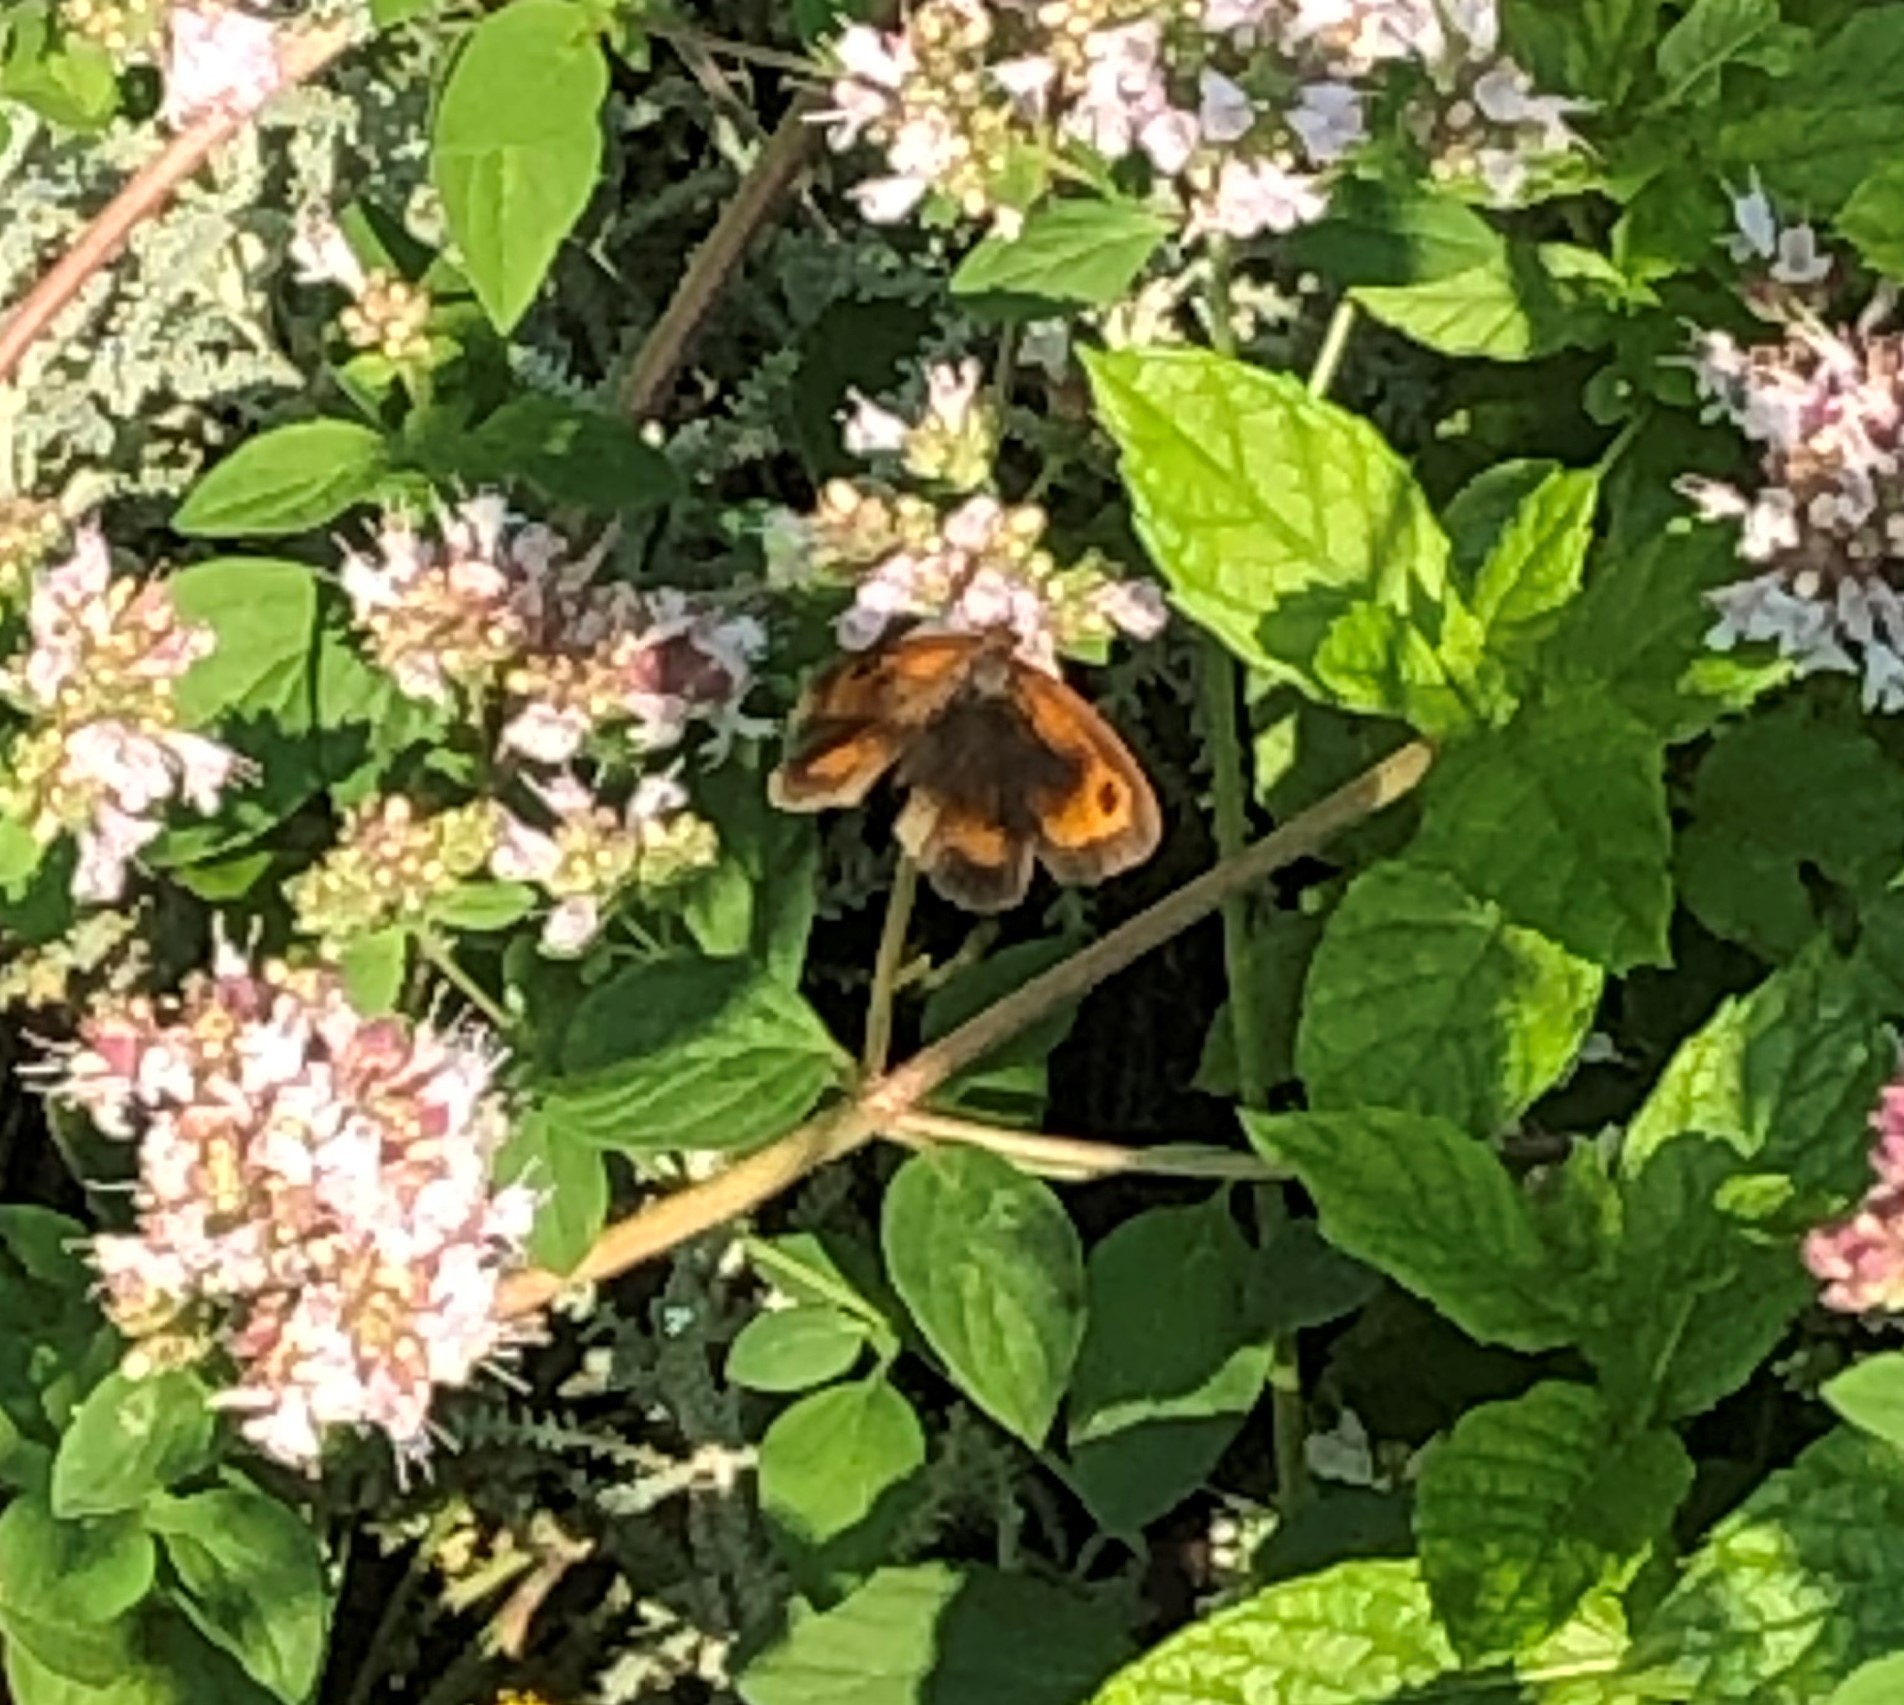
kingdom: Animalia
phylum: Arthropoda
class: Insecta
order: Lepidoptera
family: Nymphalidae
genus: Pyronia
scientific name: Pyronia tithonus
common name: Gatekeeper
